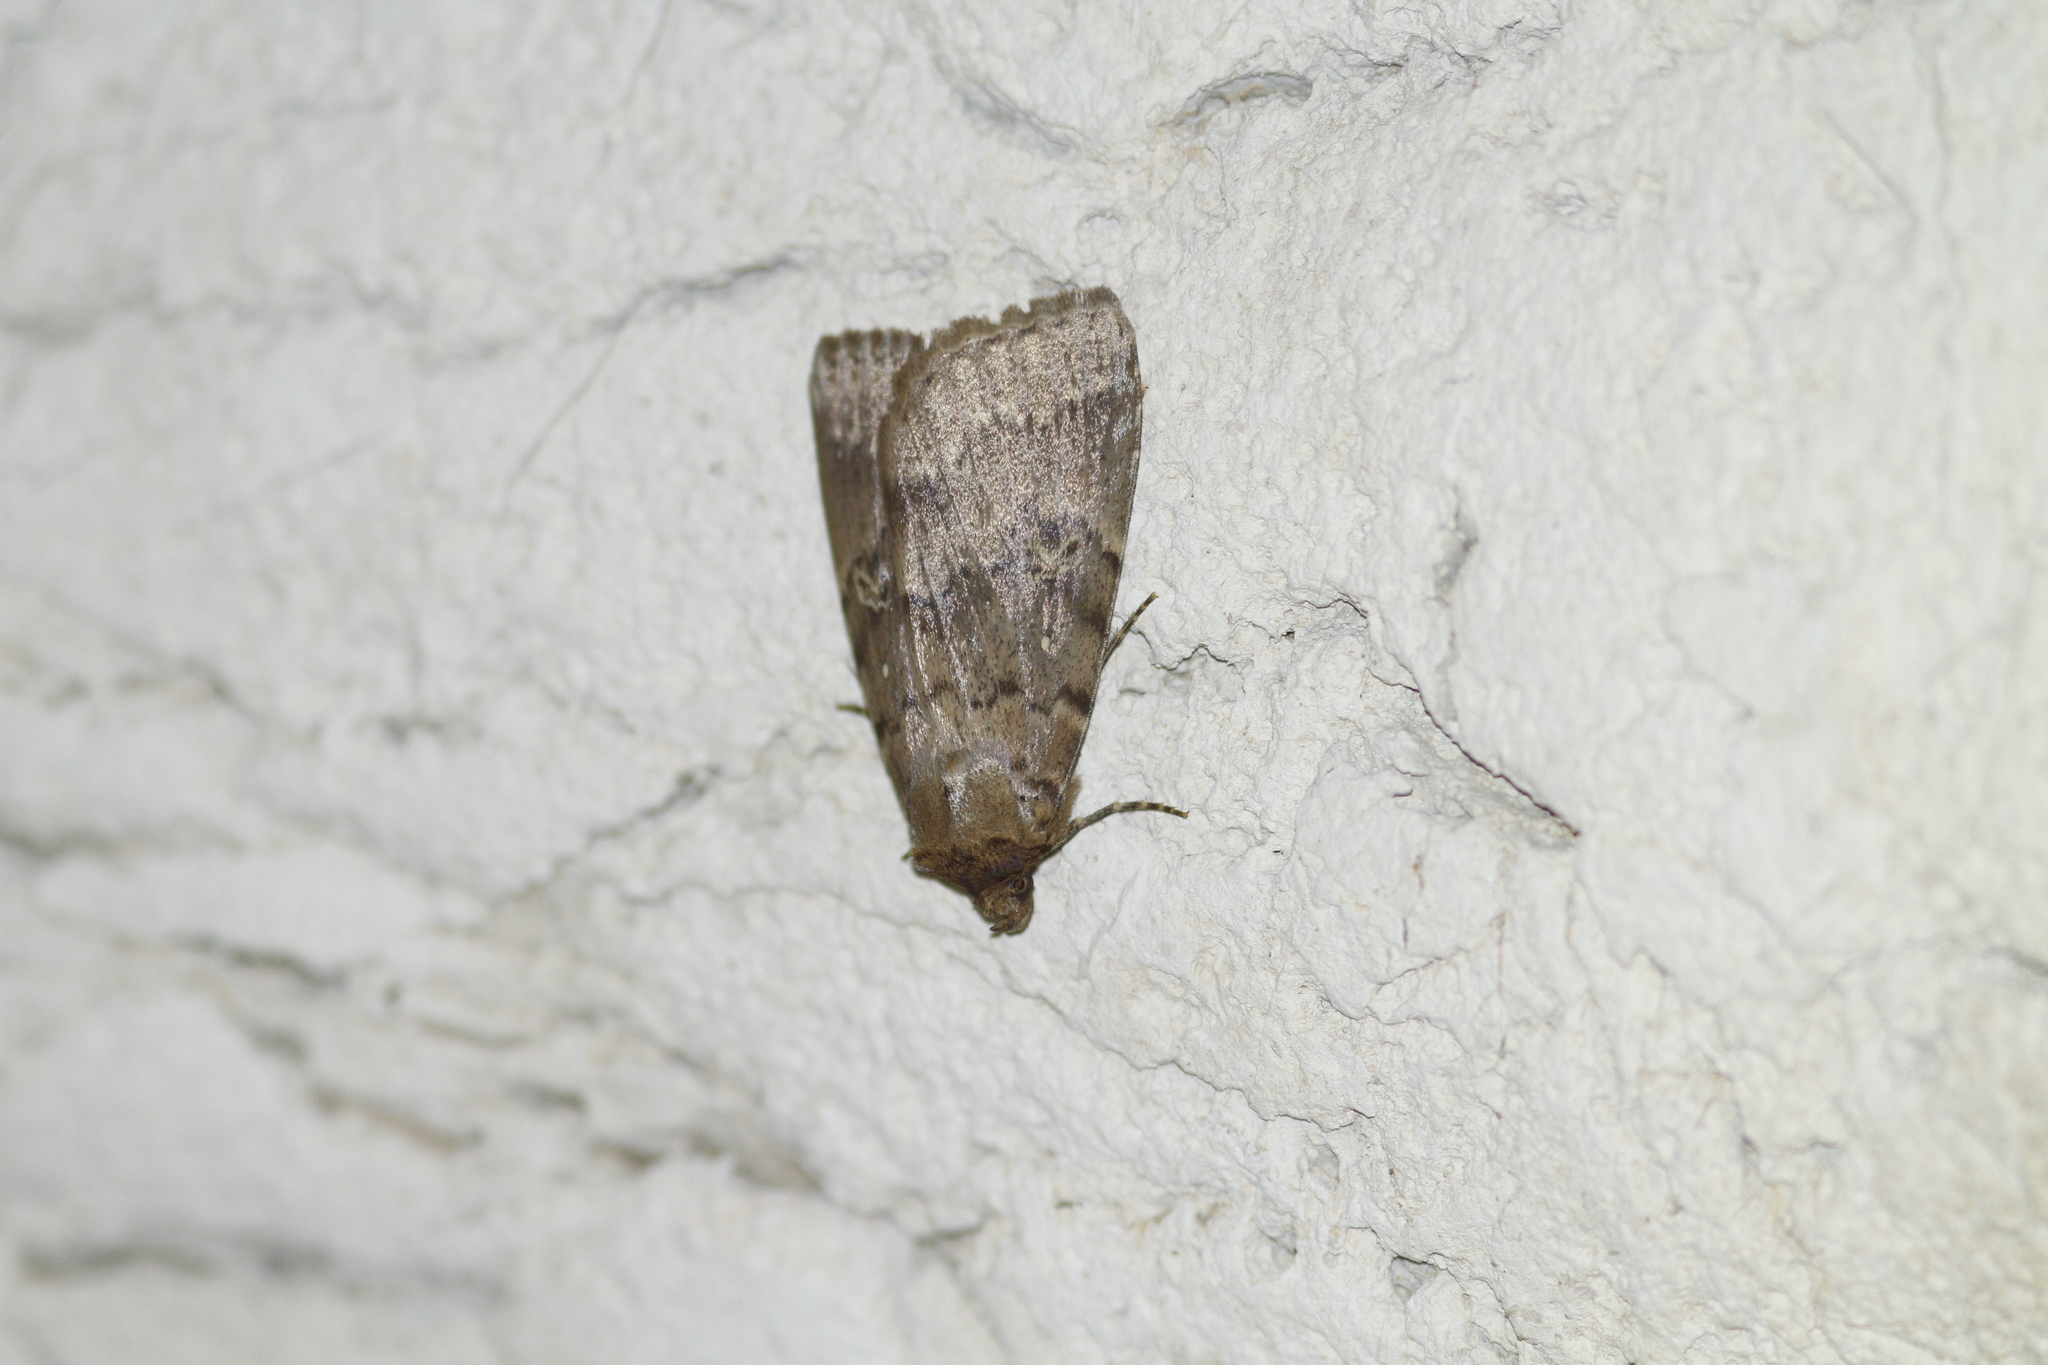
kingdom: Animalia
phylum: Arthropoda
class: Insecta
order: Lepidoptera
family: Erebidae
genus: Apopestes
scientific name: Apopestes spectrum
